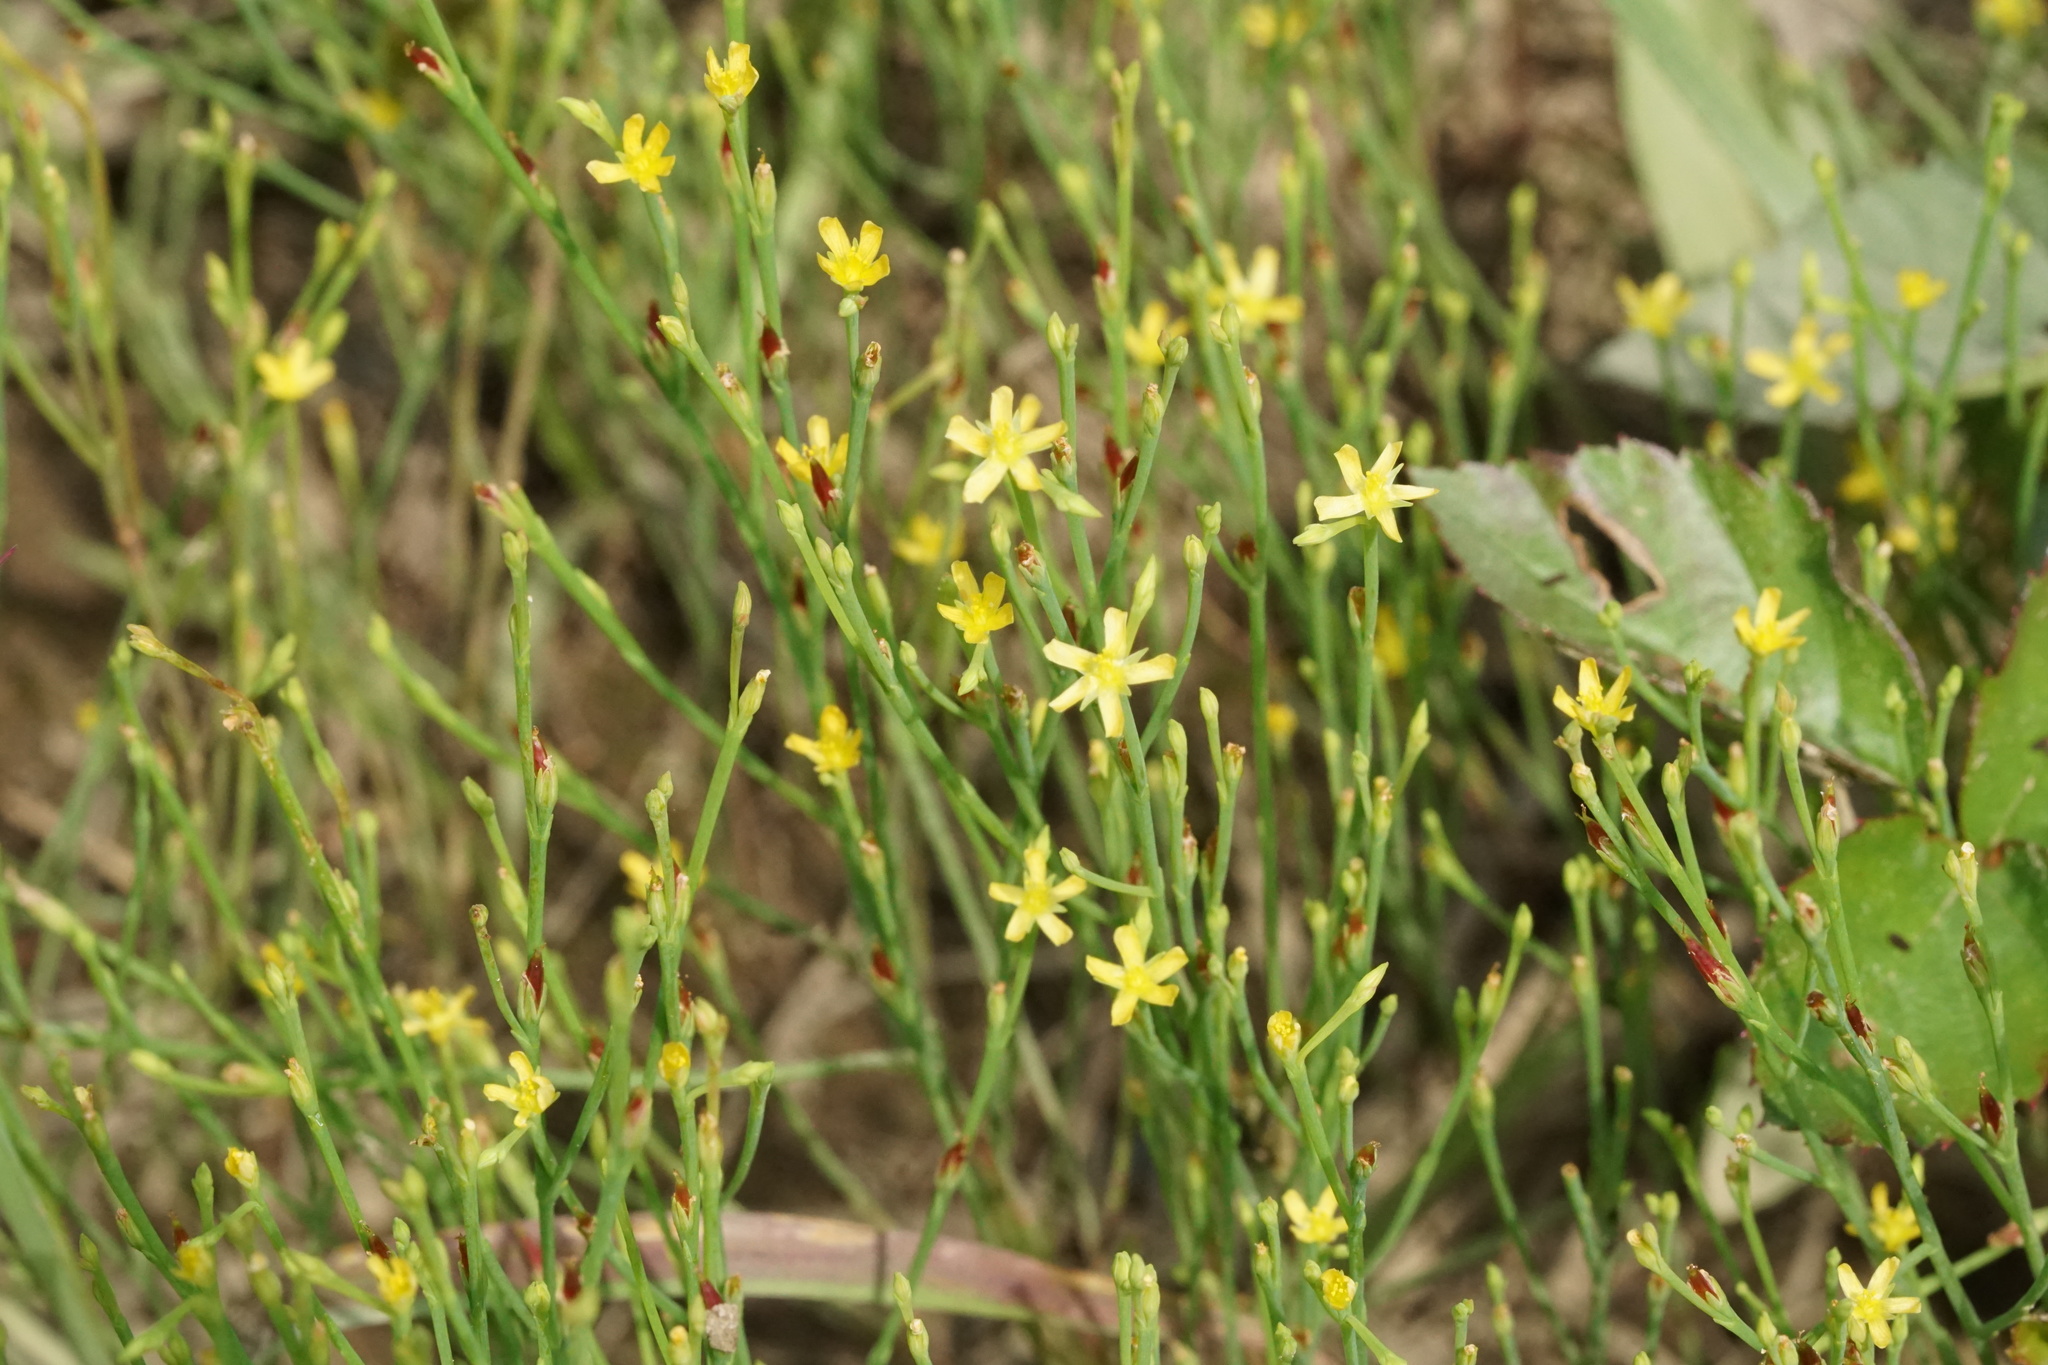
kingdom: Plantae
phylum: Tracheophyta
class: Magnoliopsida
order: Malpighiales
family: Hypericaceae
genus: Hypericum
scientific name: Hypericum gentianoides
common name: Gentian-leaved st. john's-wort
